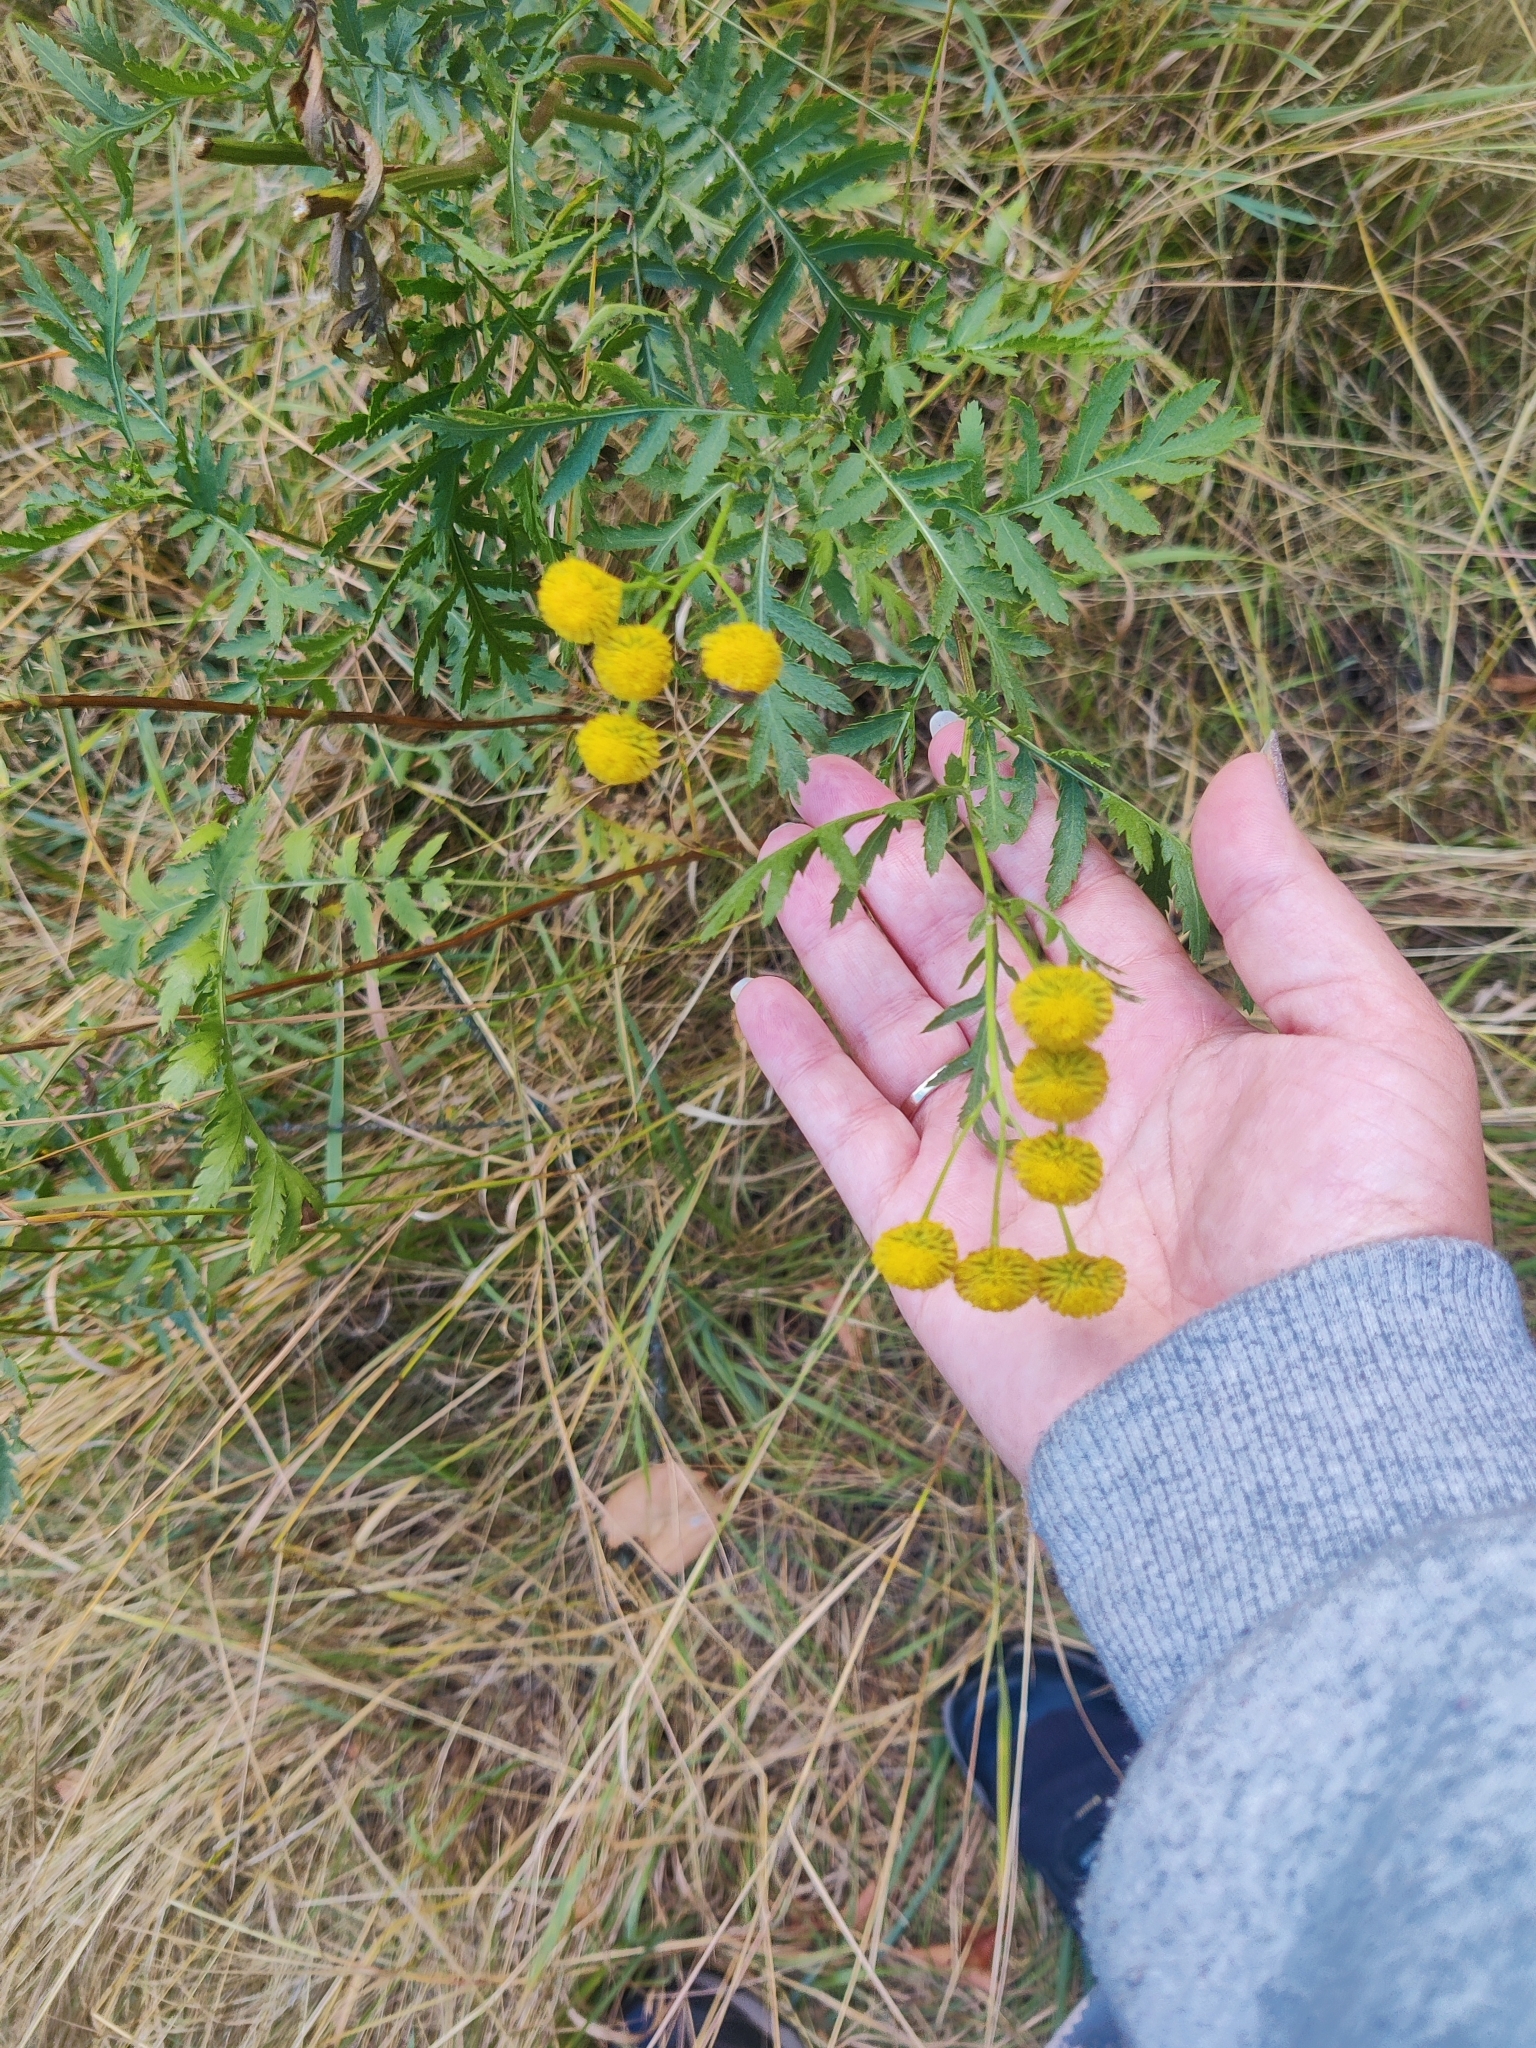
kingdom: Plantae
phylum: Tracheophyta
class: Magnoliopsida
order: Asterales
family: Asteraceae
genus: Tanacetum
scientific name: Tanacetum vulgare
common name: Common tansy
